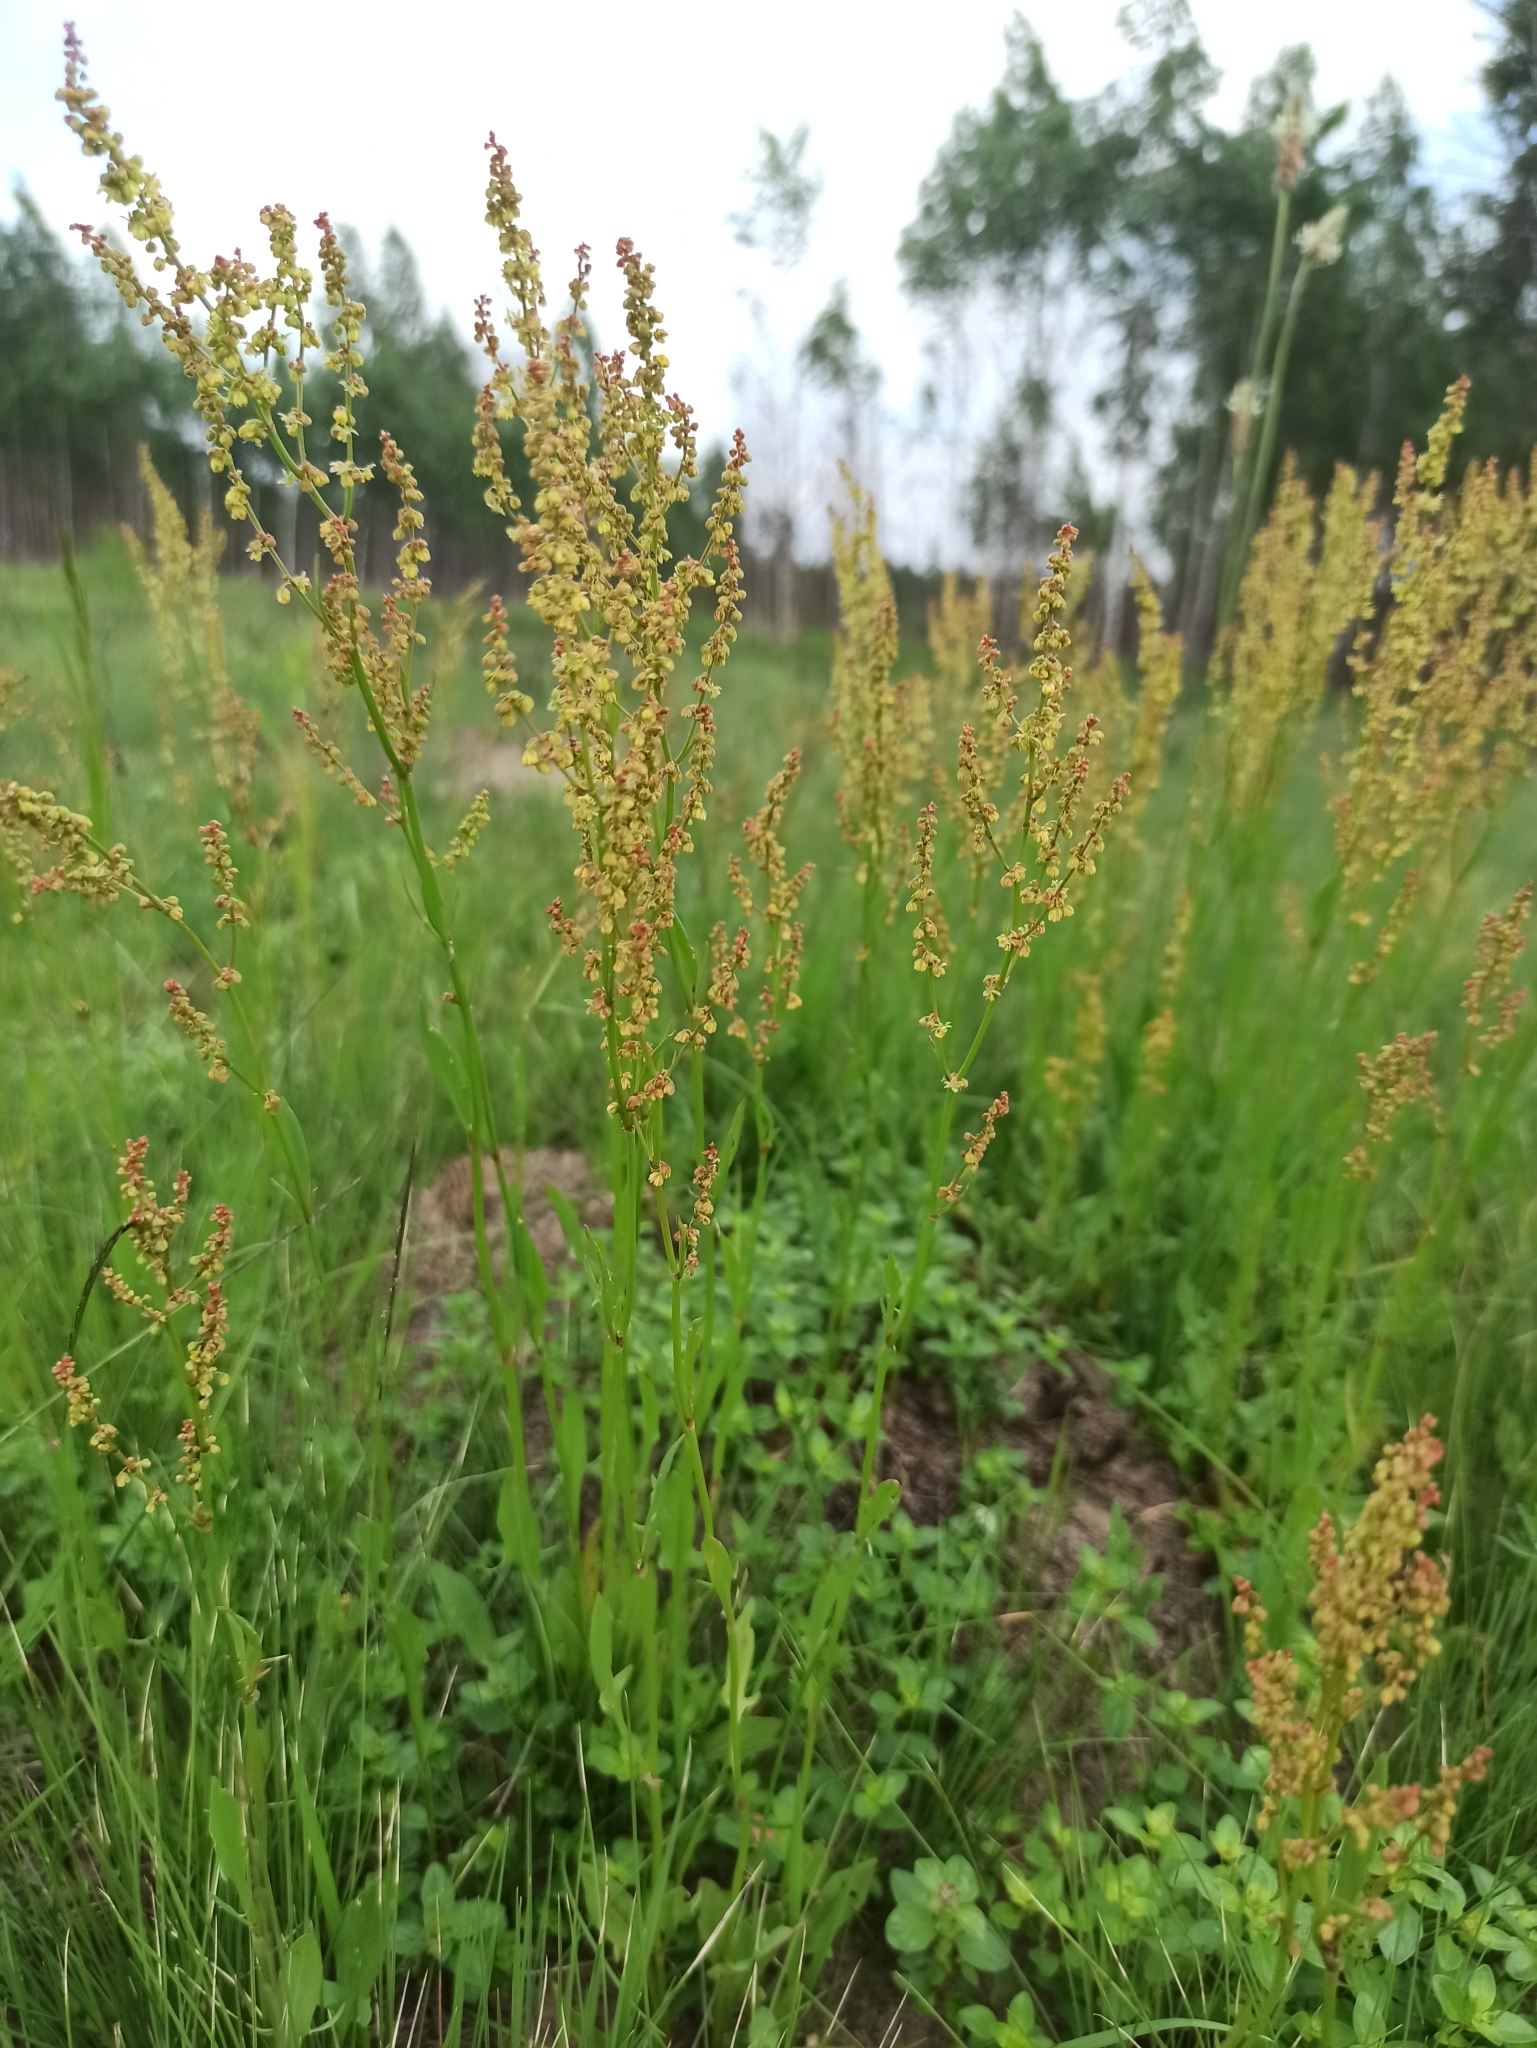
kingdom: Plantae
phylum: Tracheophyta
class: Magnoliopsida
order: Caryophyllales
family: Polygonaceae
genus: Rumex
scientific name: Rumex acetosella
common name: Common sheep sorrel
